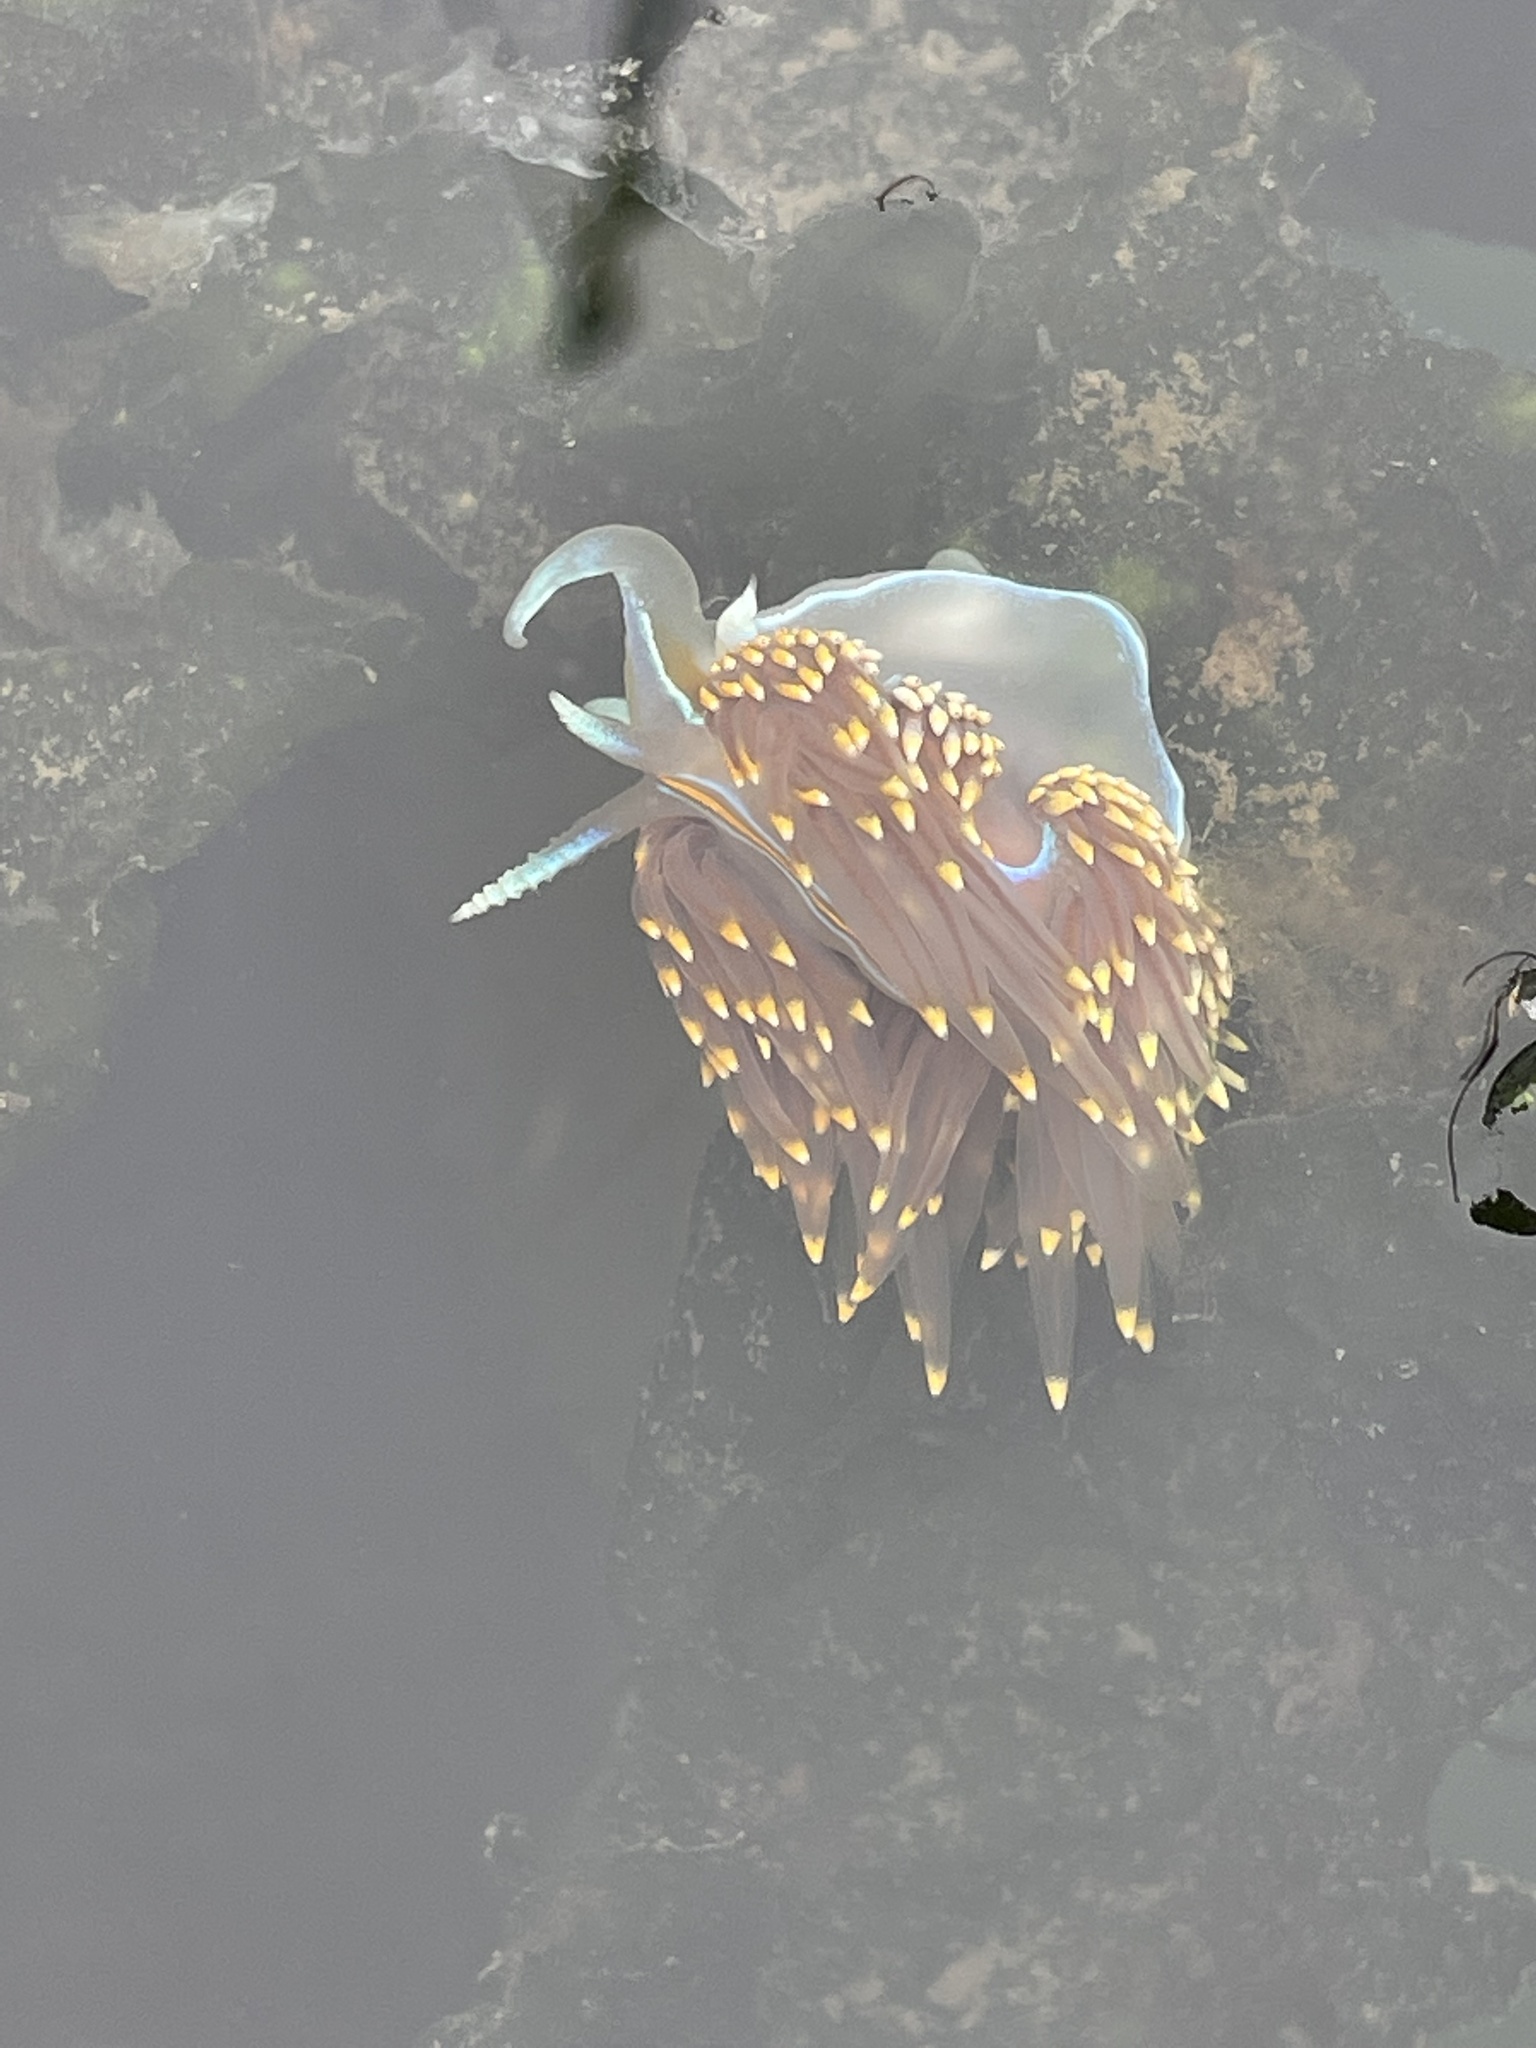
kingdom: Animalia
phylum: Mollusca
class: Gastropoda
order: Nudibranchia
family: Myrrhinidae
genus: Hermissenda
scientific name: Hermissenda opalescens
